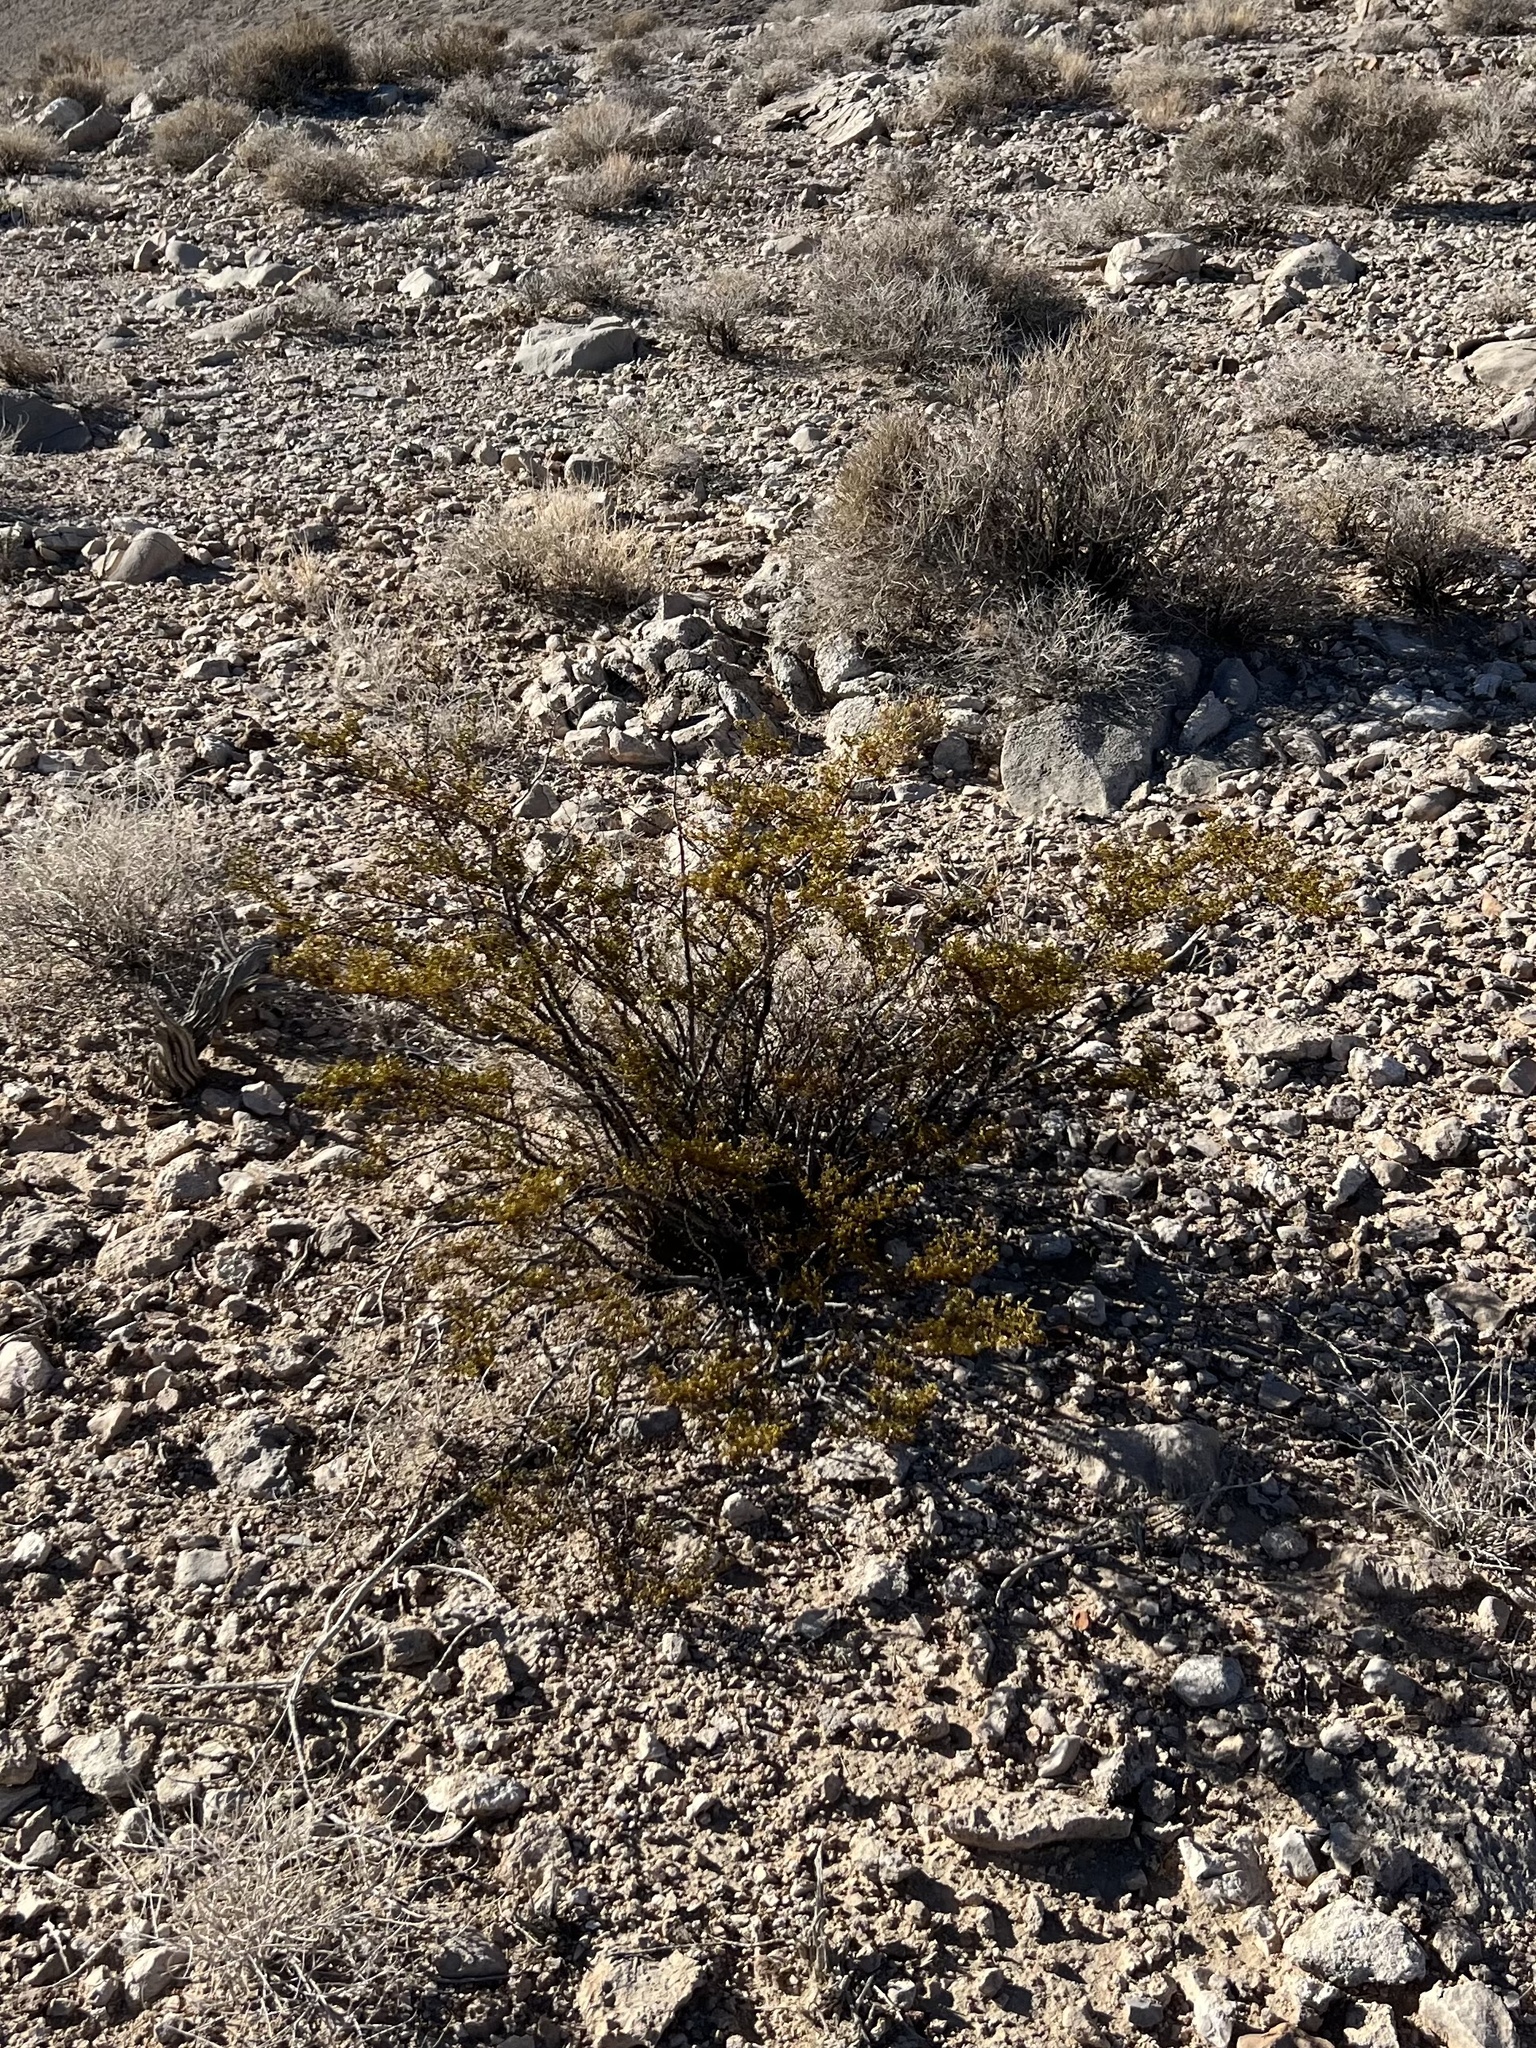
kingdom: Plantae
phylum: Tracheophyta
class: Magnoliopsida
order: Zygophyllales
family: Zygophyllaceae
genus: Larrea
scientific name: Larrea tridentata
